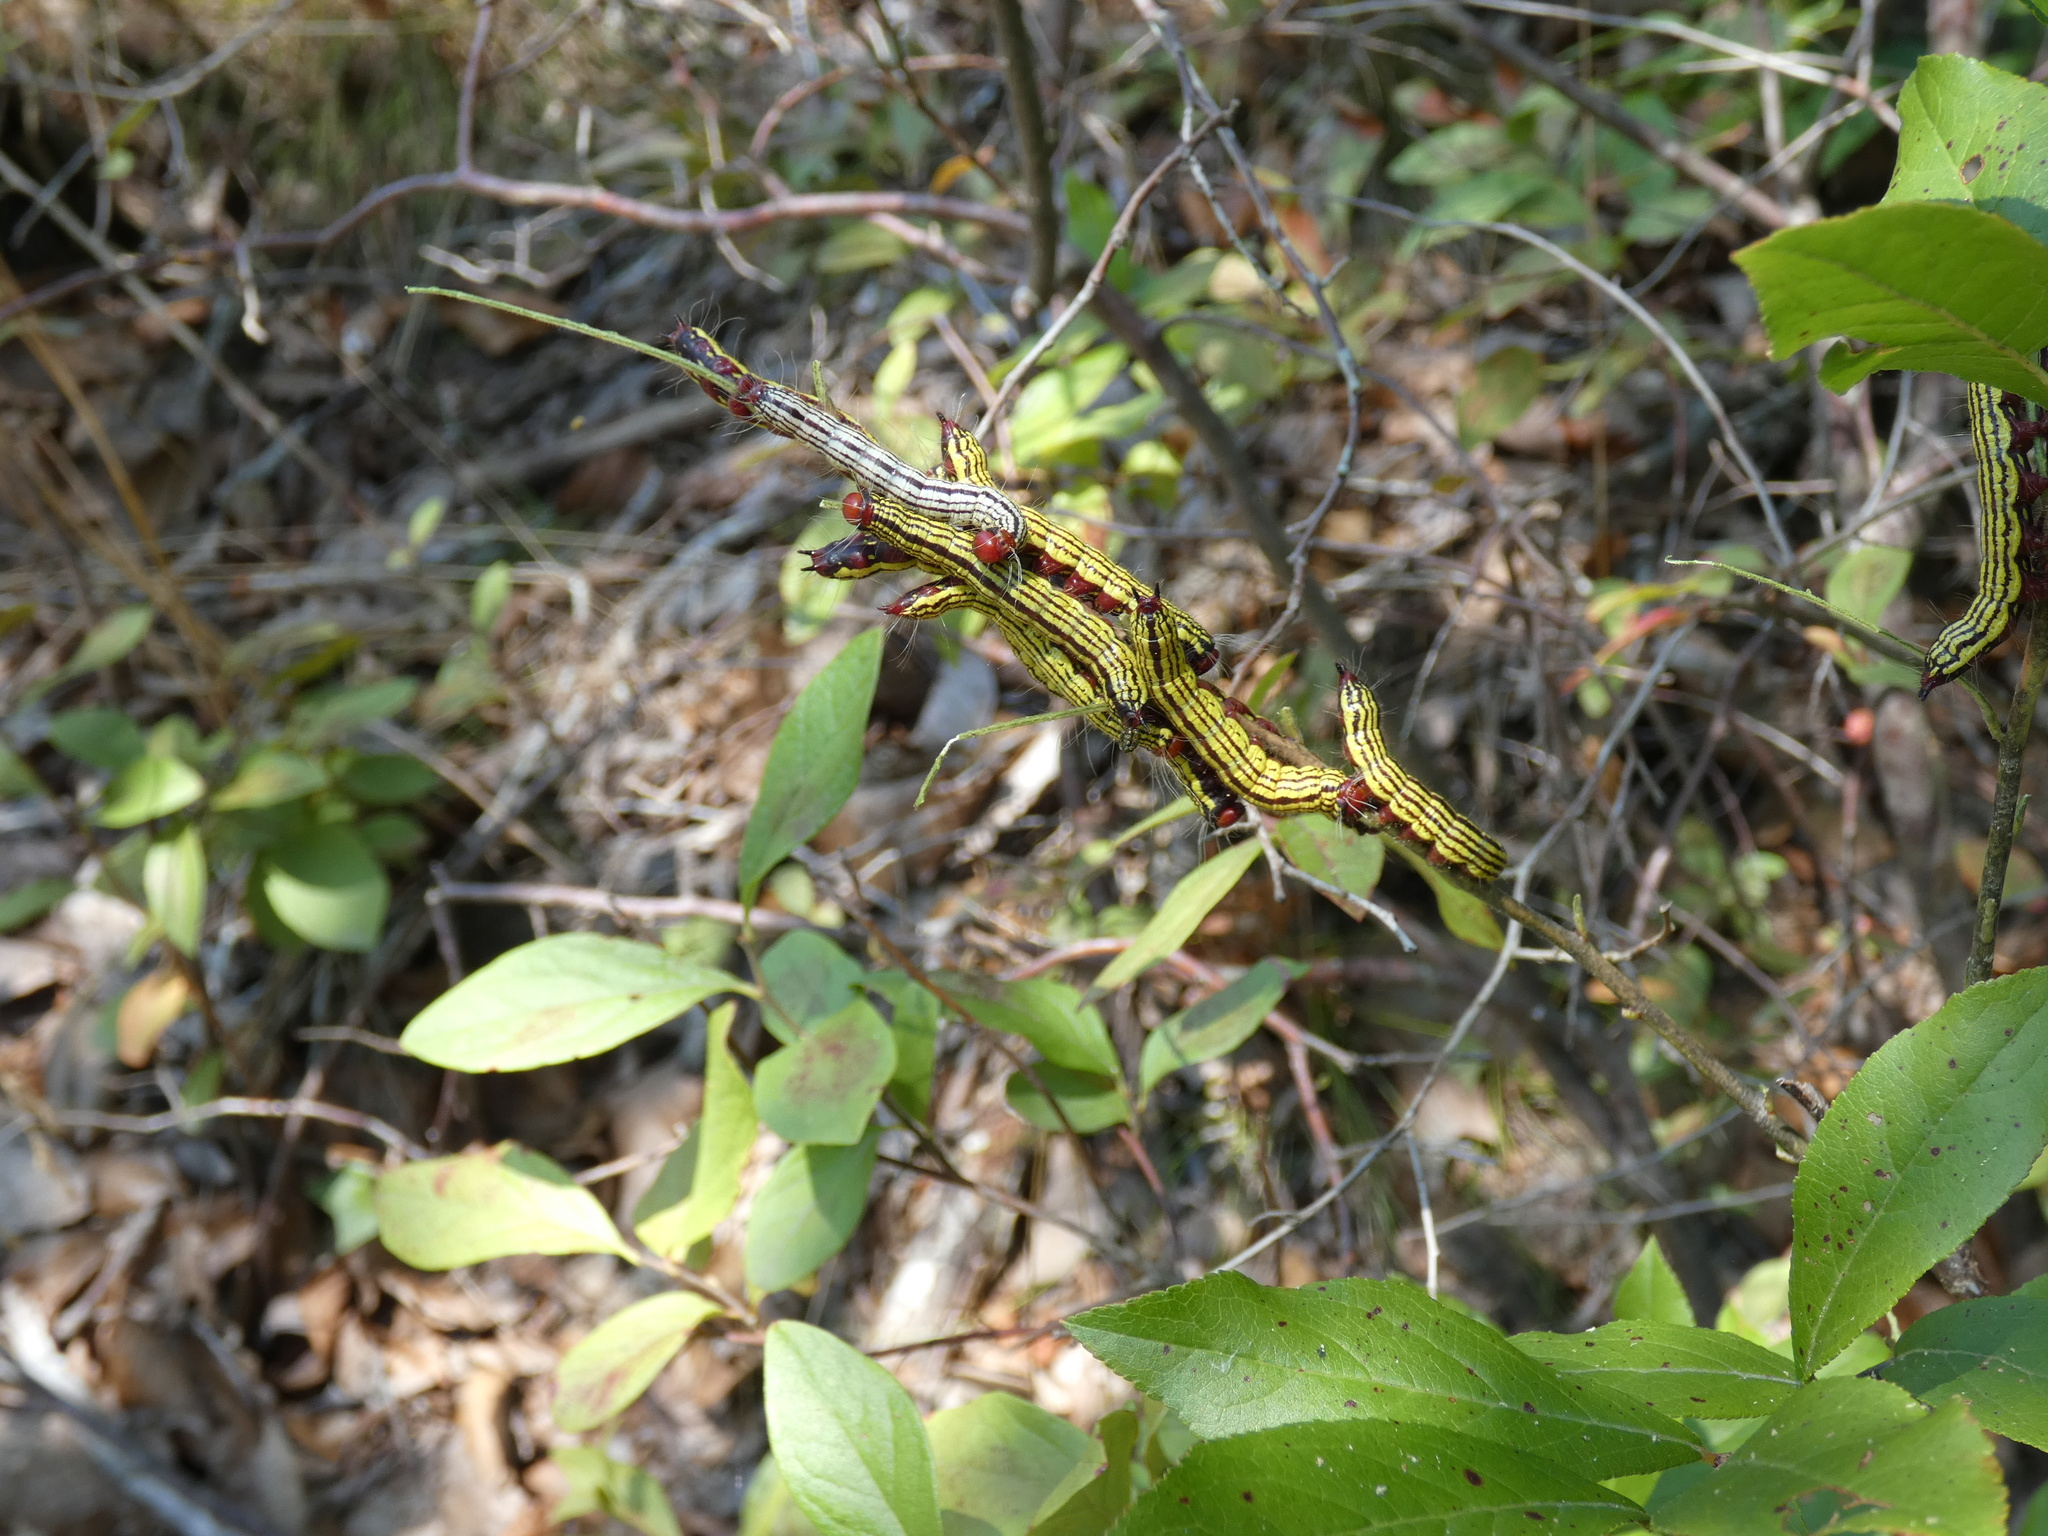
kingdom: Animalia
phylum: Arthropoda
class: Insecta
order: Lepidoptera
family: Notodontidae
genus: Datana
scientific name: Datana major
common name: Azalea caterpillar
